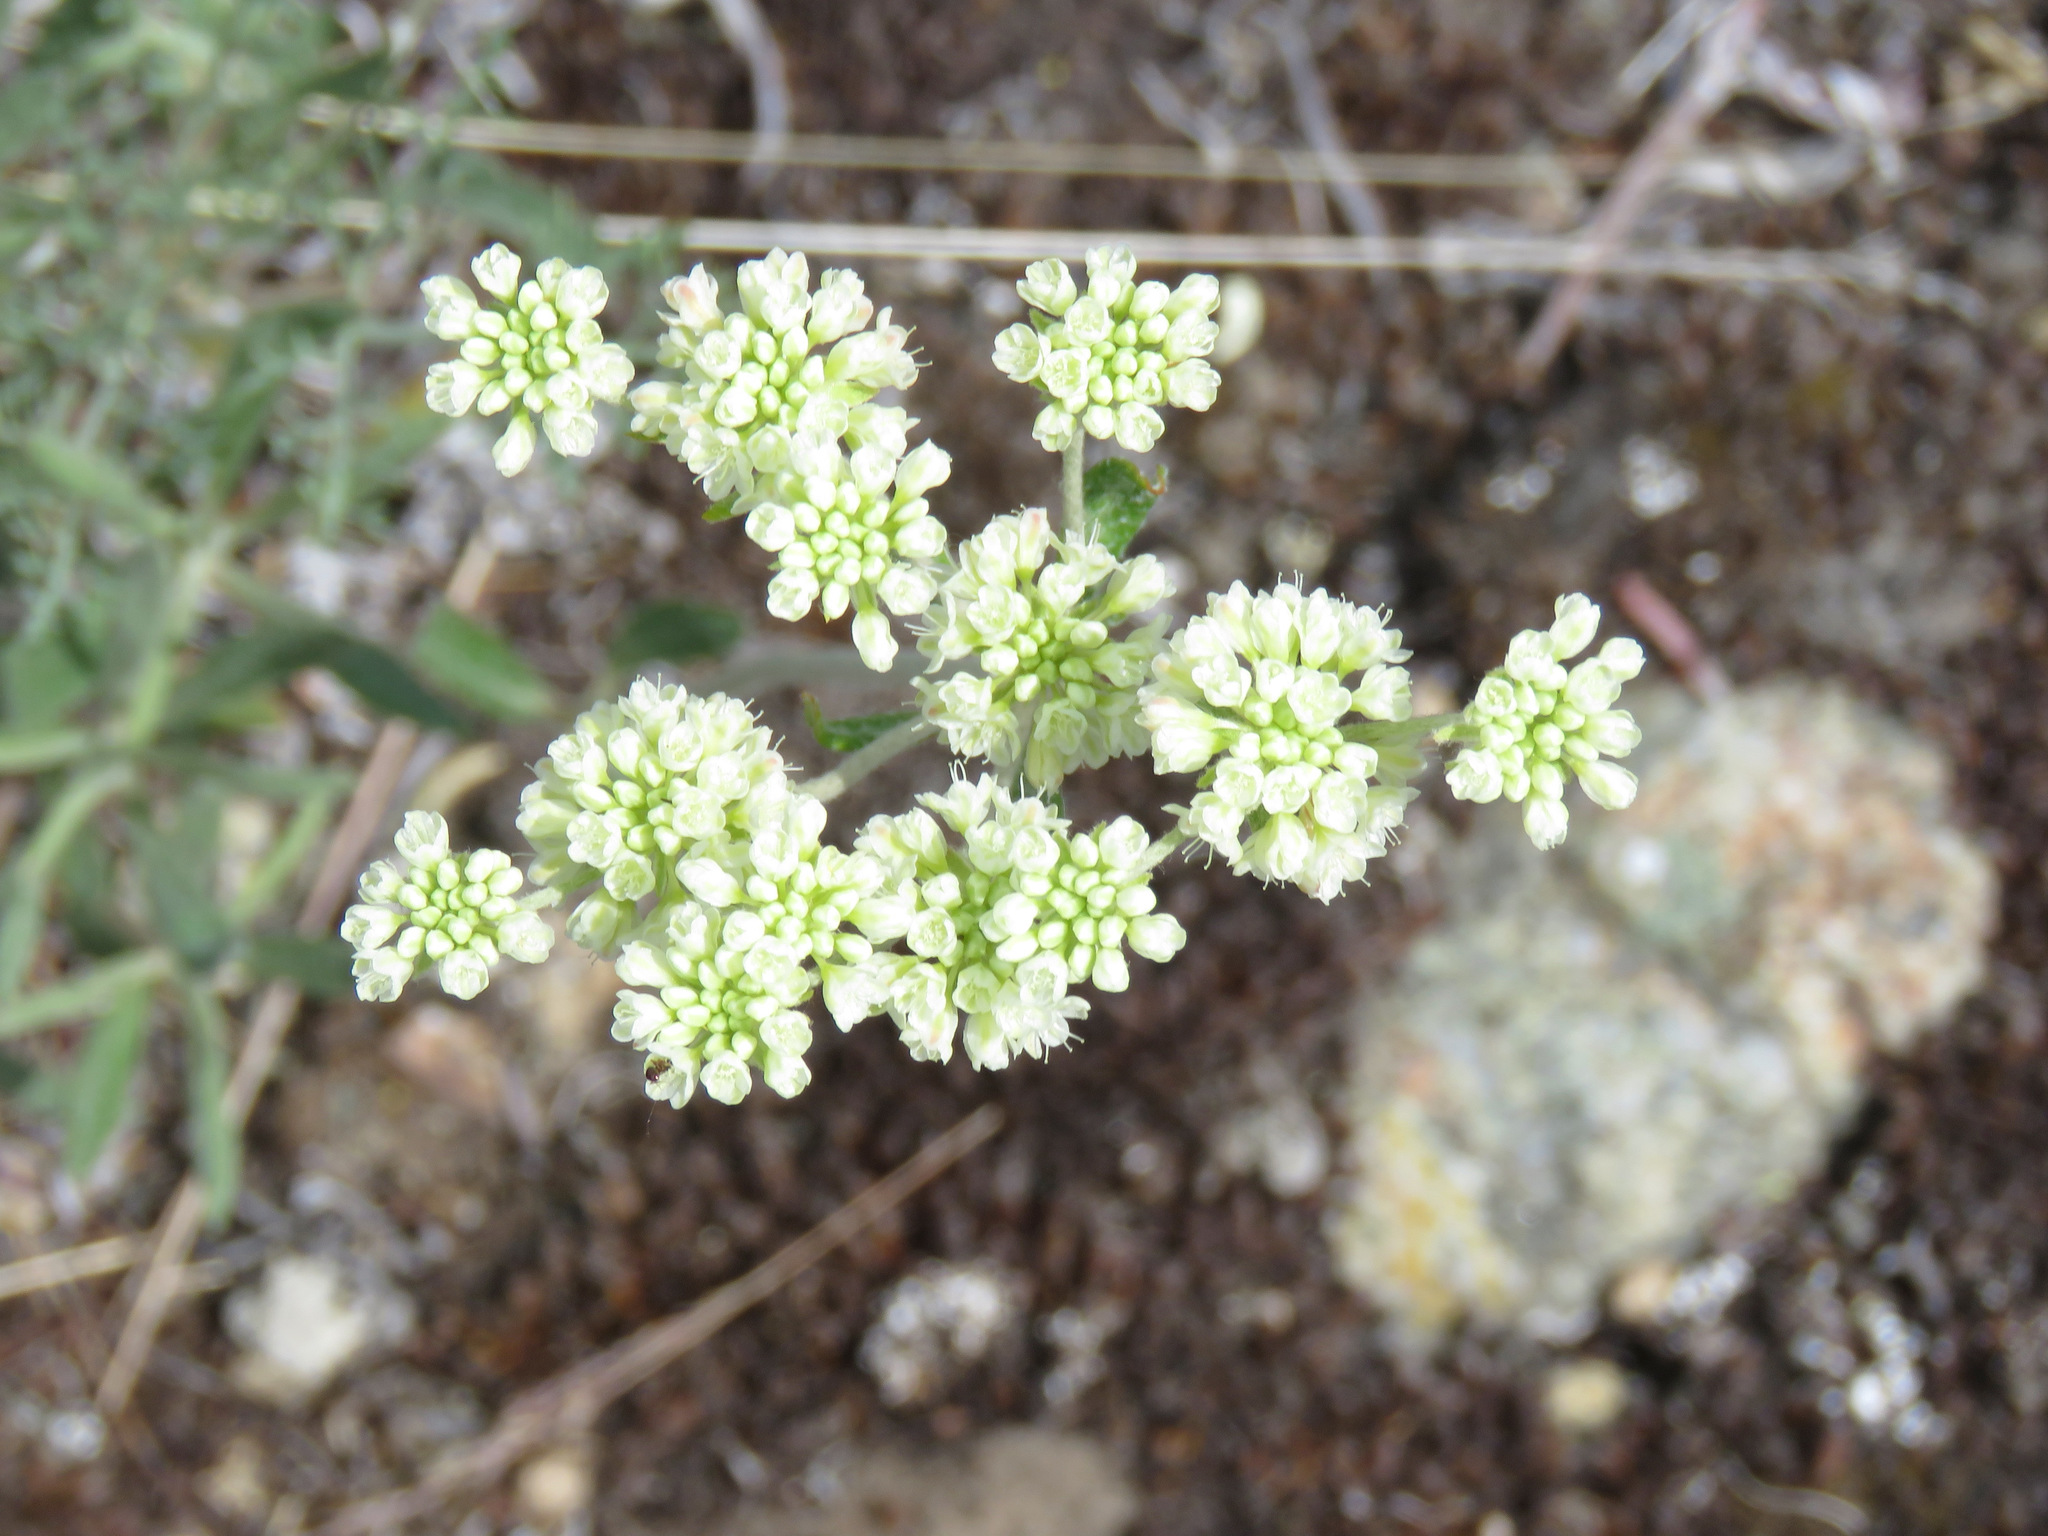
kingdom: Plantae
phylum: Tracheophyta
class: Magnoliopsida
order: Caryophyllales
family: Polygonaceae
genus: Eriogonum
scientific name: Eriogonum heracleoides
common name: Wyeth's buckwheat
